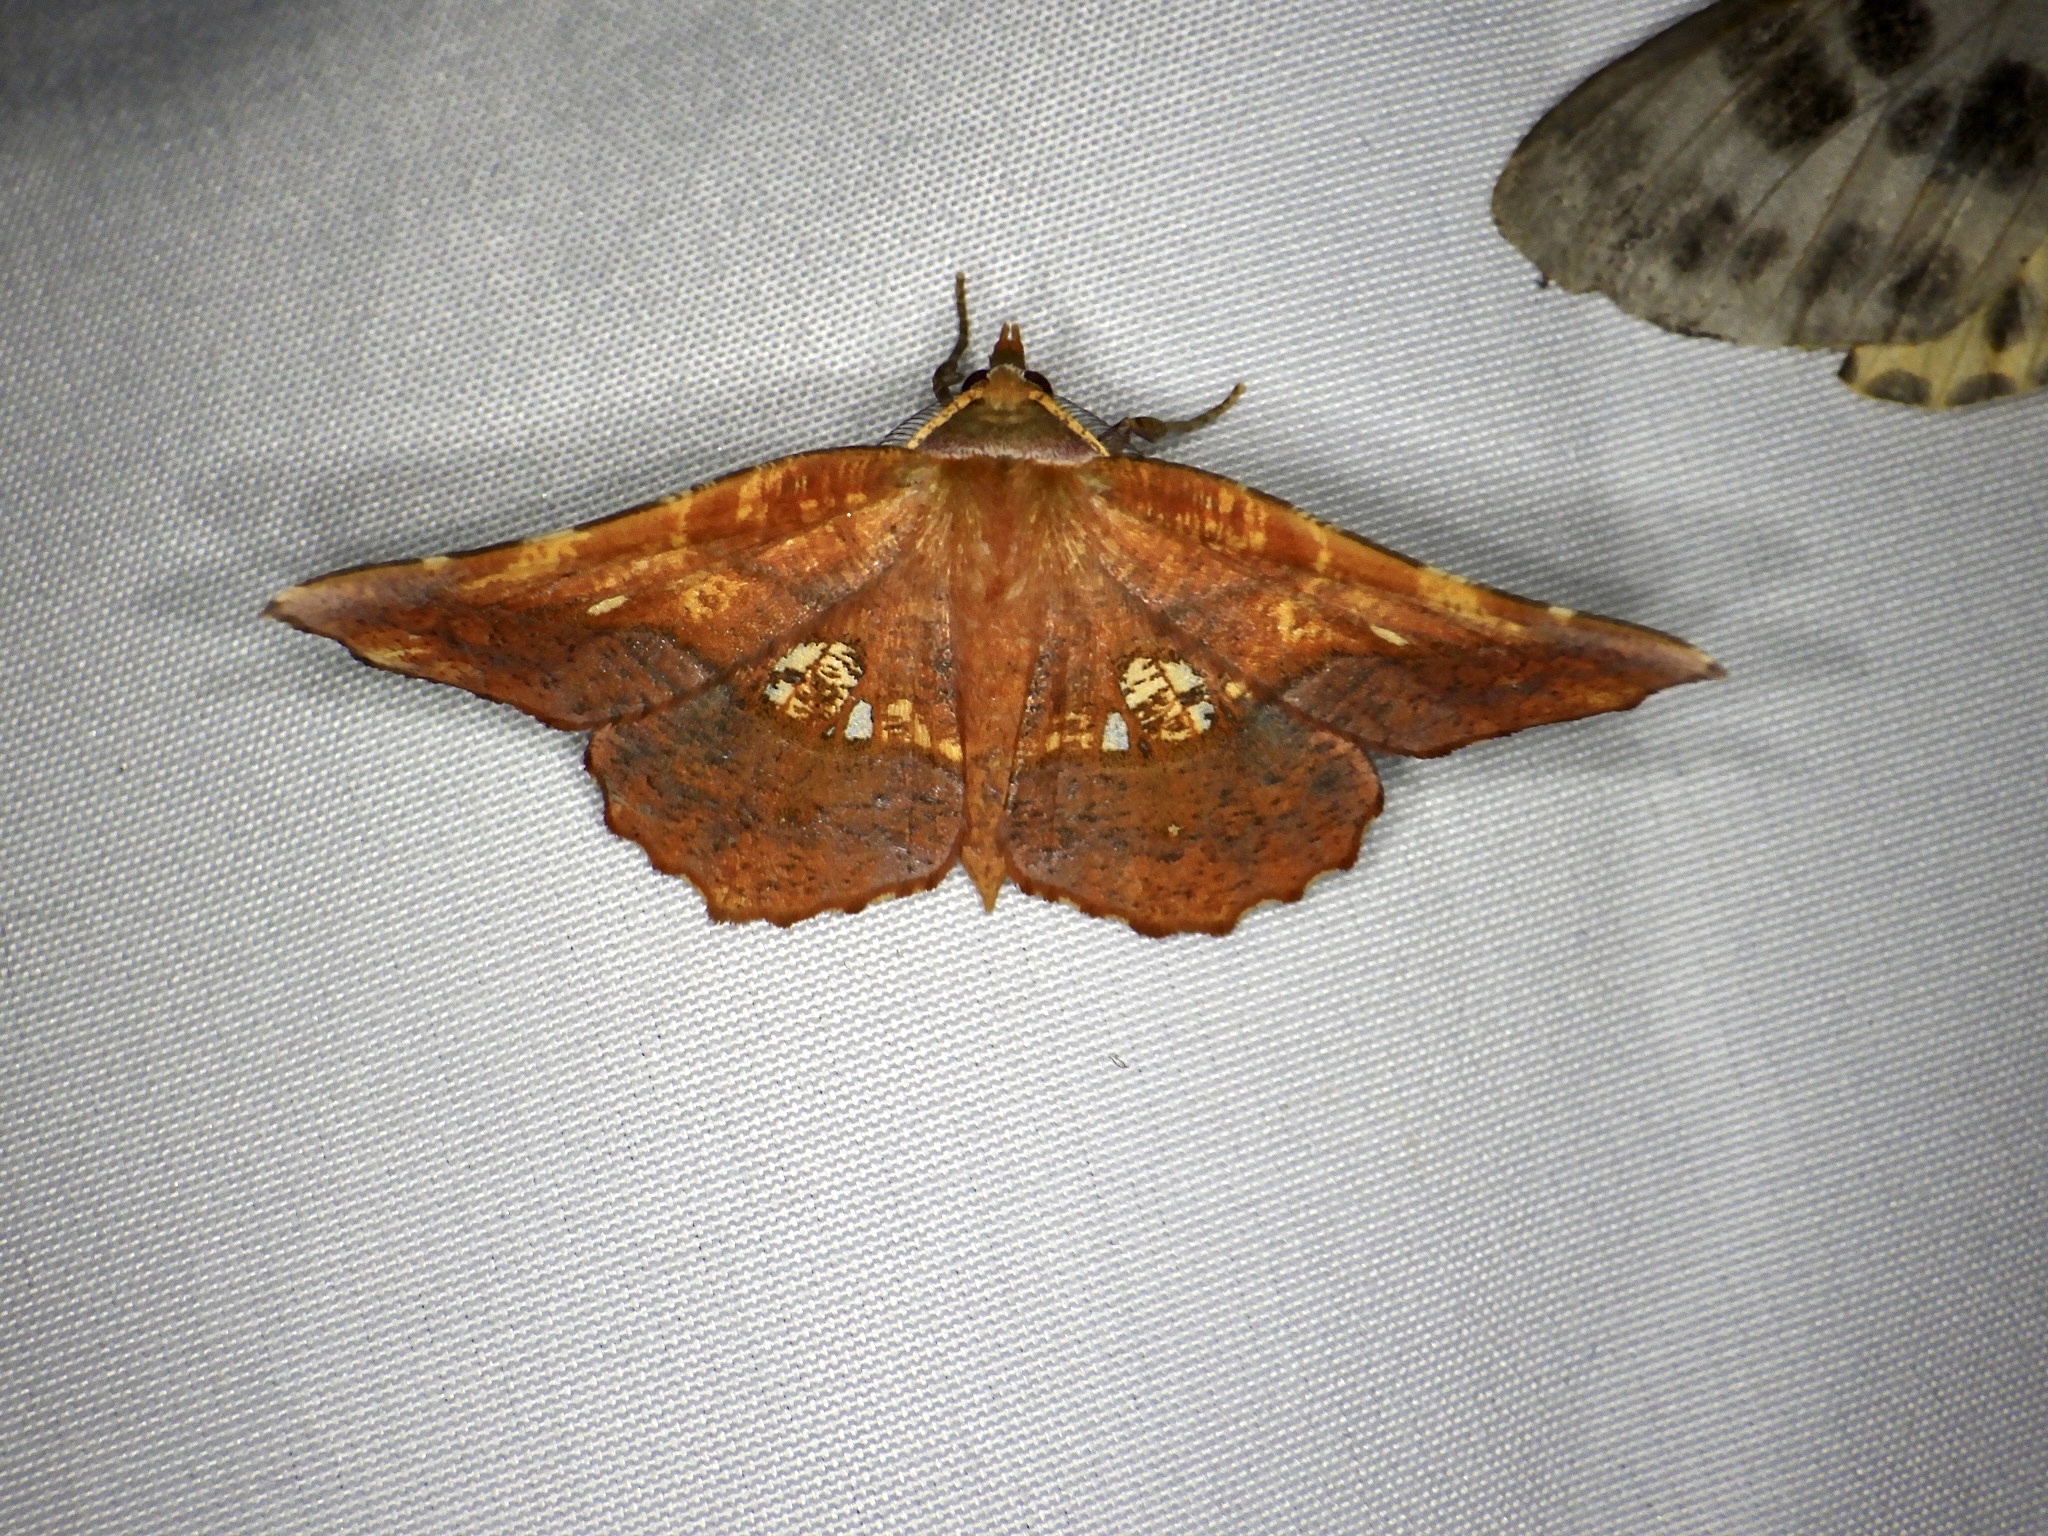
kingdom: Animalia
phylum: Arthropoda
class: Insecta
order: Lepidoptera
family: Geometridae
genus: Garaeus
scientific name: Garaeus specularis
